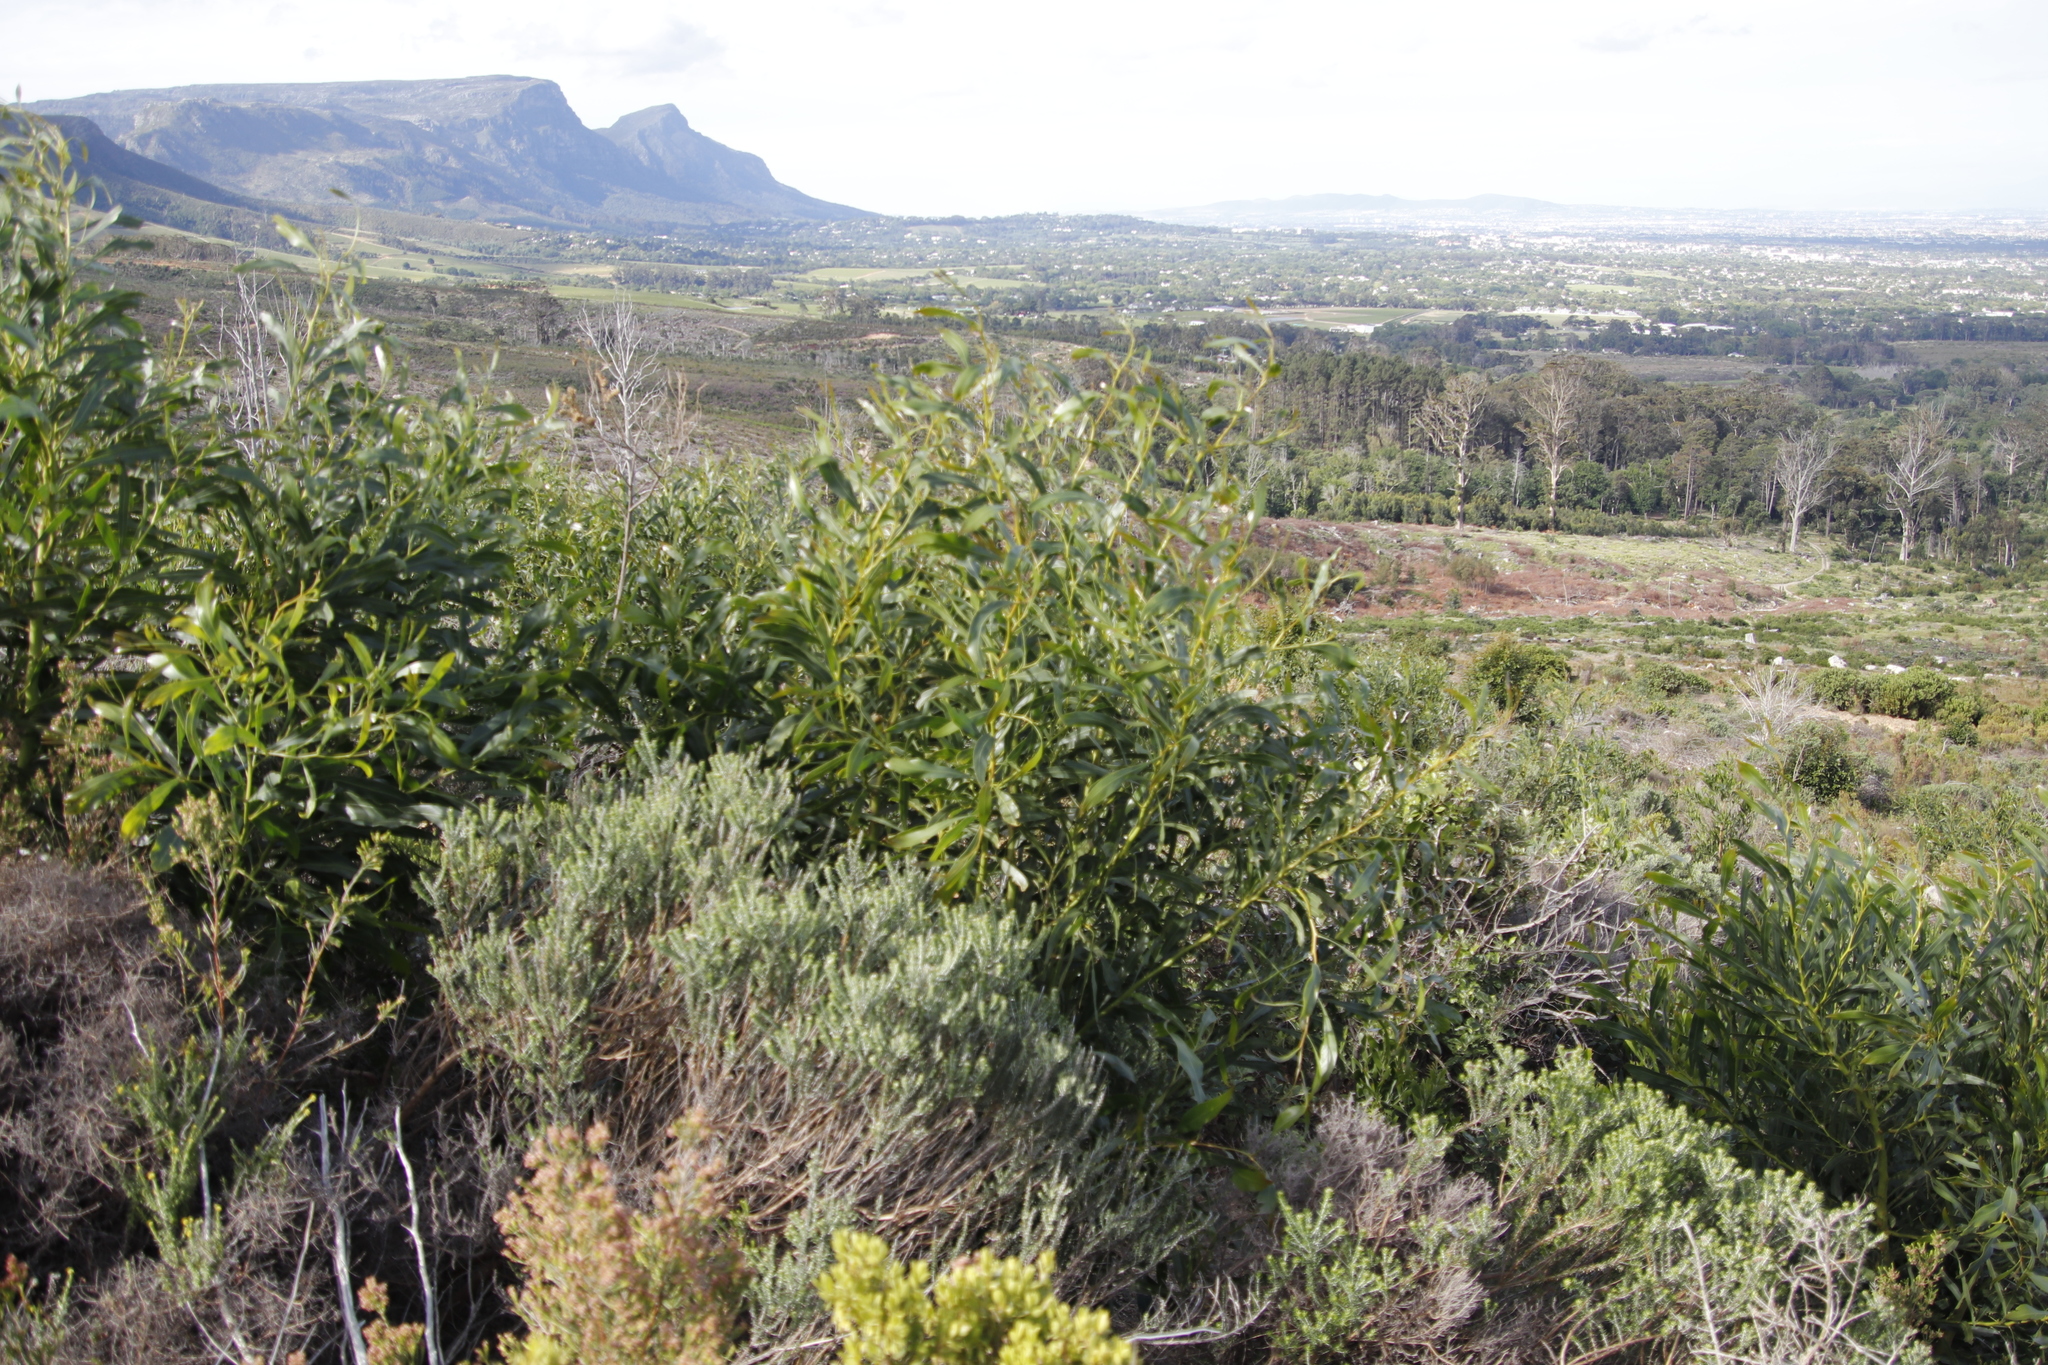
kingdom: Plantae
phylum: Tracheophyta
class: Magnoliopsida
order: Fabales
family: Fabaceae
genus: Acacia
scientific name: Acacia saligna
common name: Orange wattle
